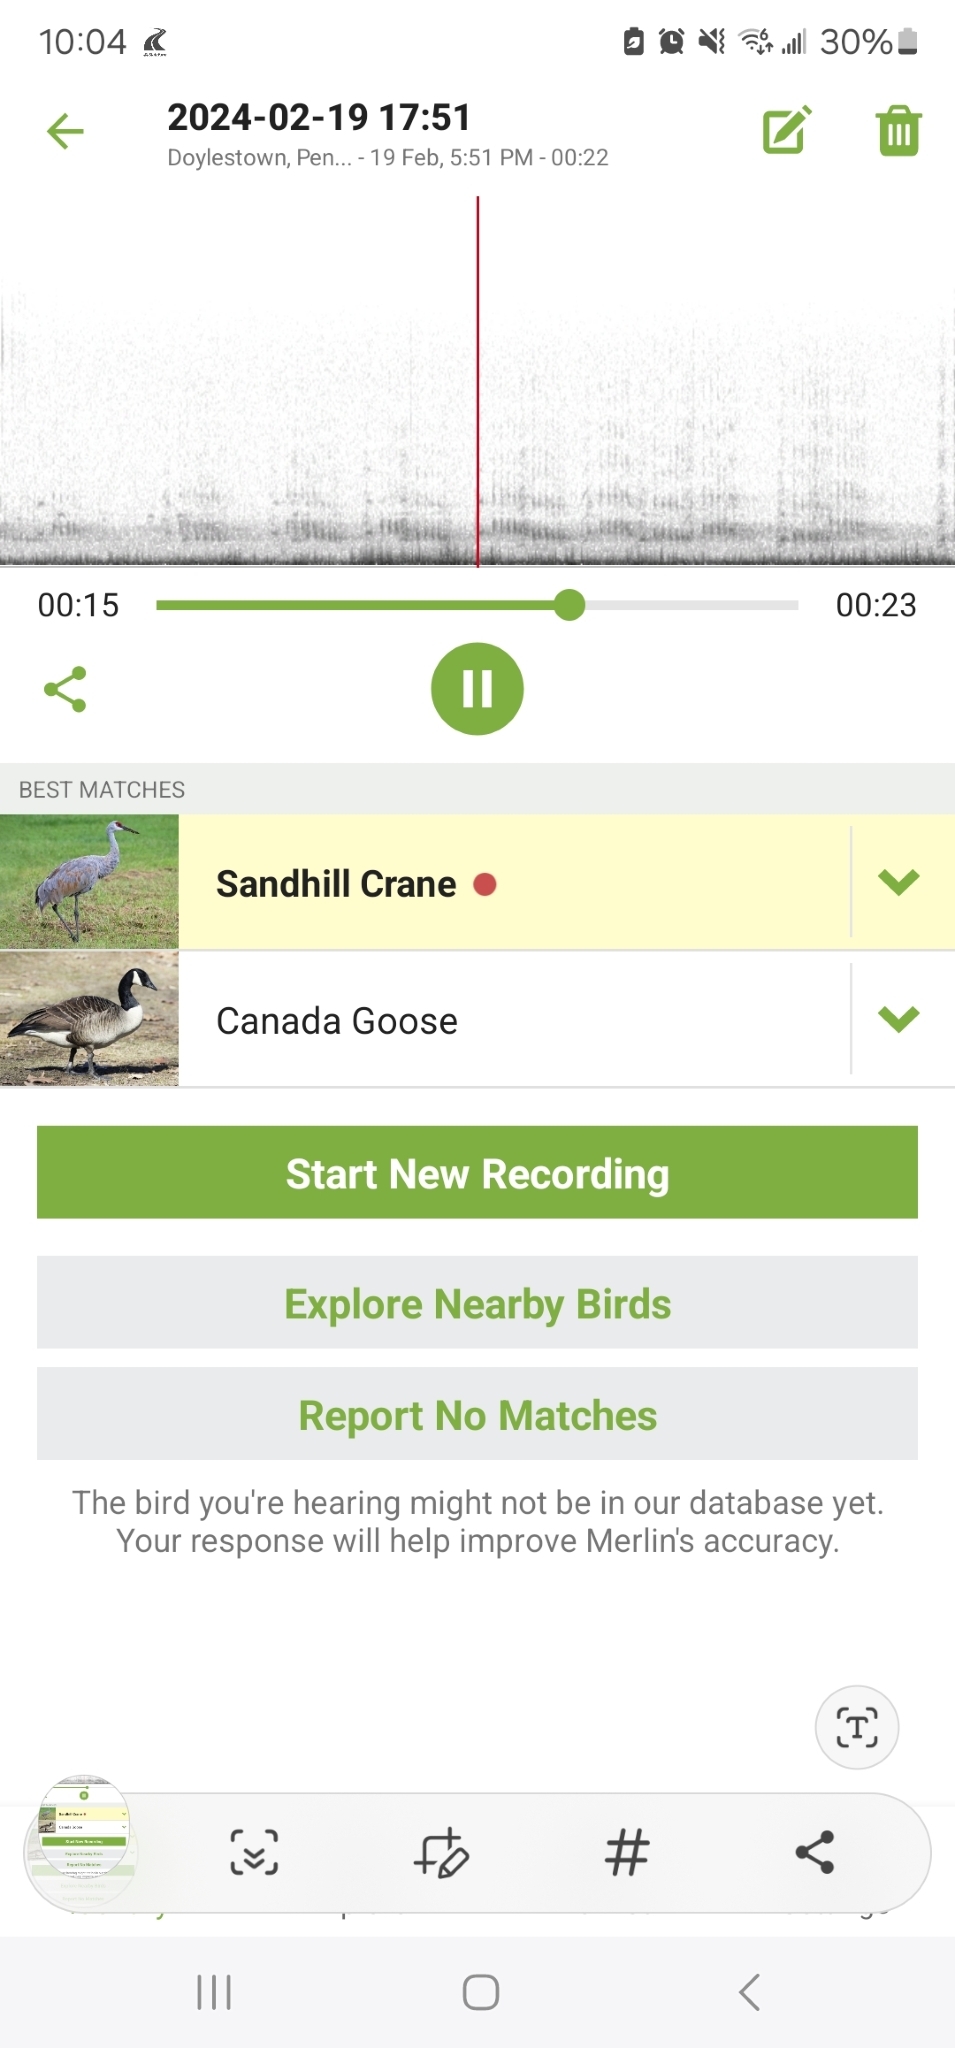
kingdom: Animalia
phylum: Chordata
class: Aves
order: Gruiformes
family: Gruidae
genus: Grus
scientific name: Grus canadensis
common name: Sandhill crane
